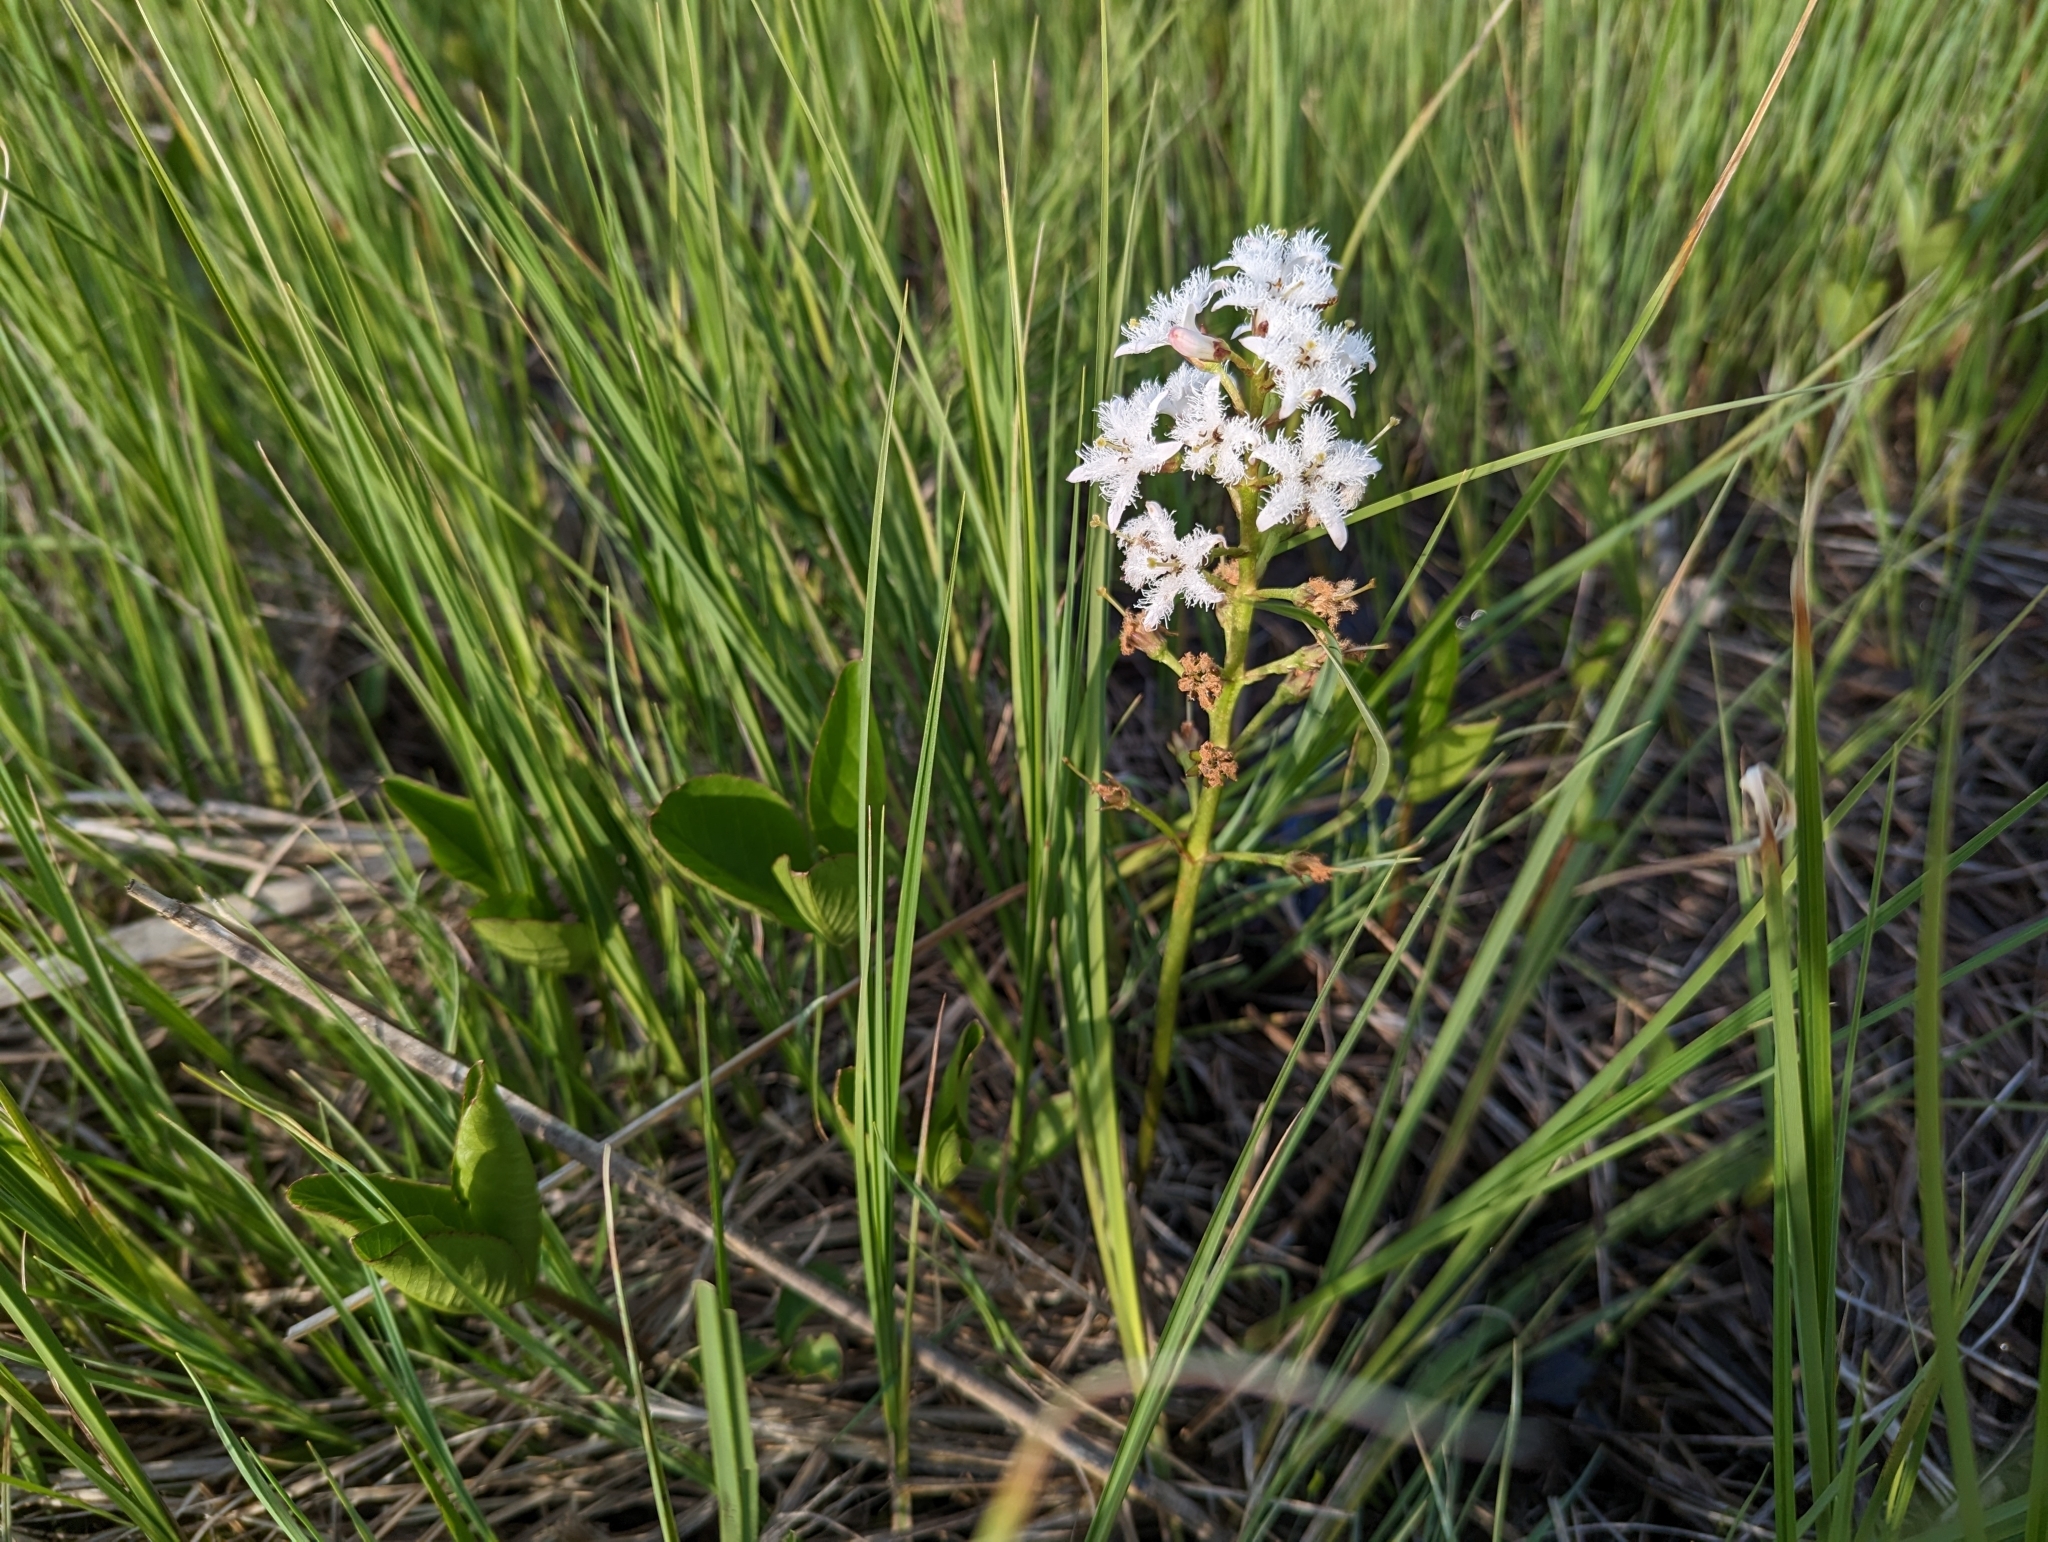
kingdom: Plantae
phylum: Tracheophyta
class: Magnoliopsida
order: Asterales
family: Menyanthaceae
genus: Menyanthes
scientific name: Menyanthes trifoliata
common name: Bogbean
